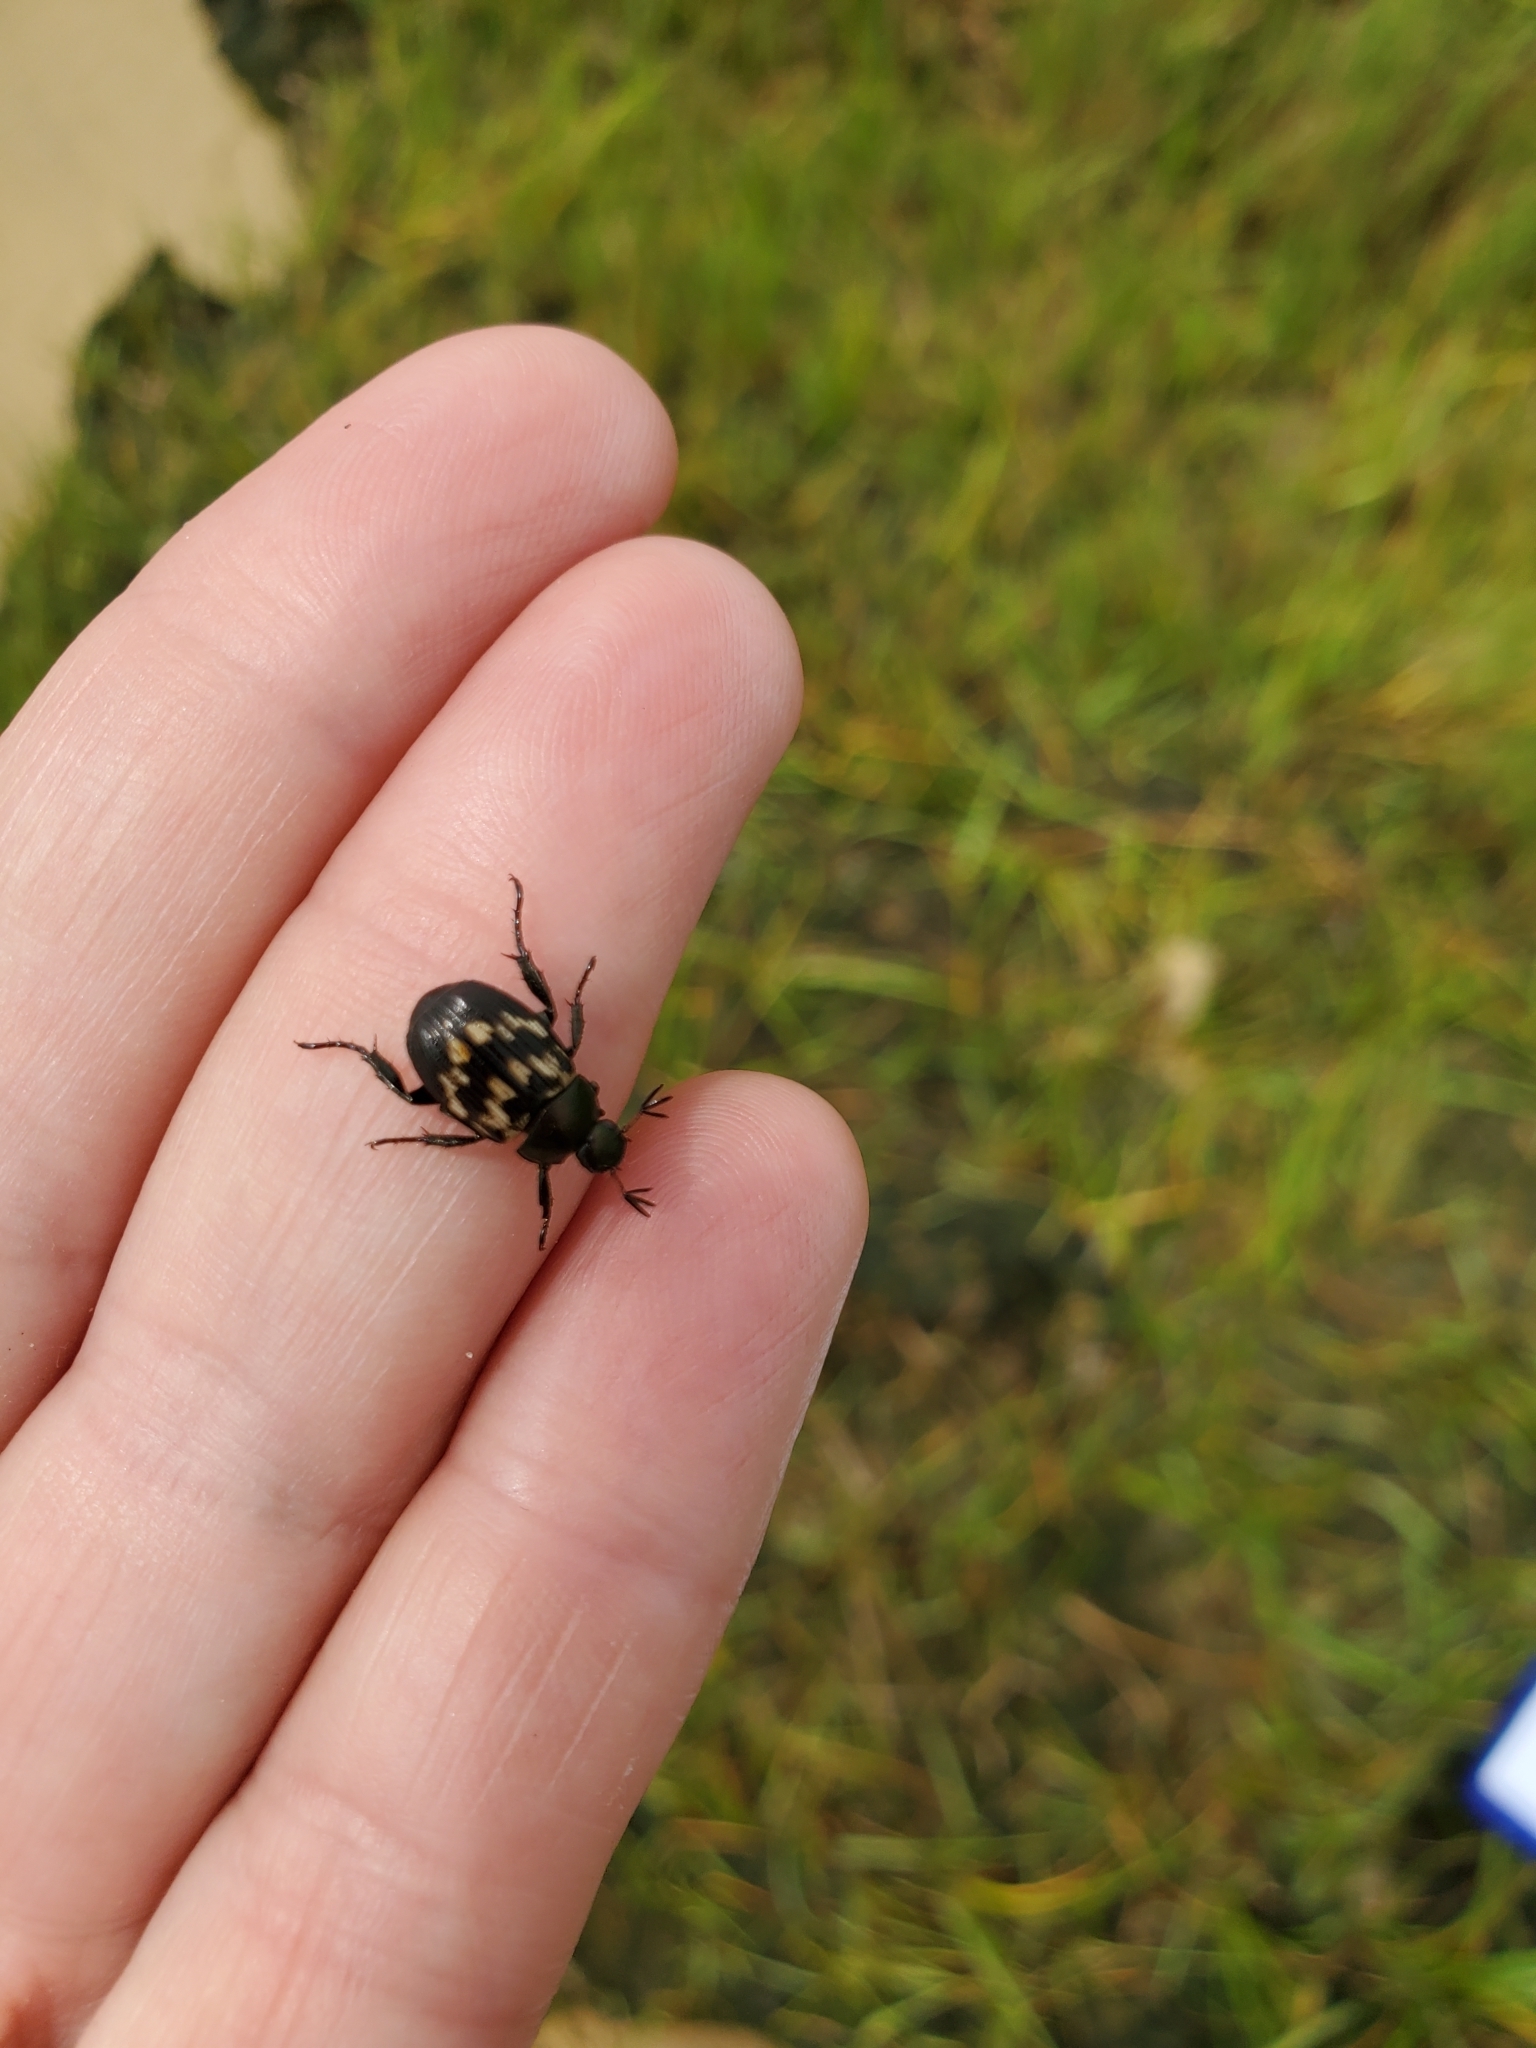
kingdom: Animalia
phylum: Arthropoda
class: Insecta
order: Coleoptera
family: Scarabaeidae
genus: Exomala
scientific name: Exomala orientalis
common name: Oriental beetle
